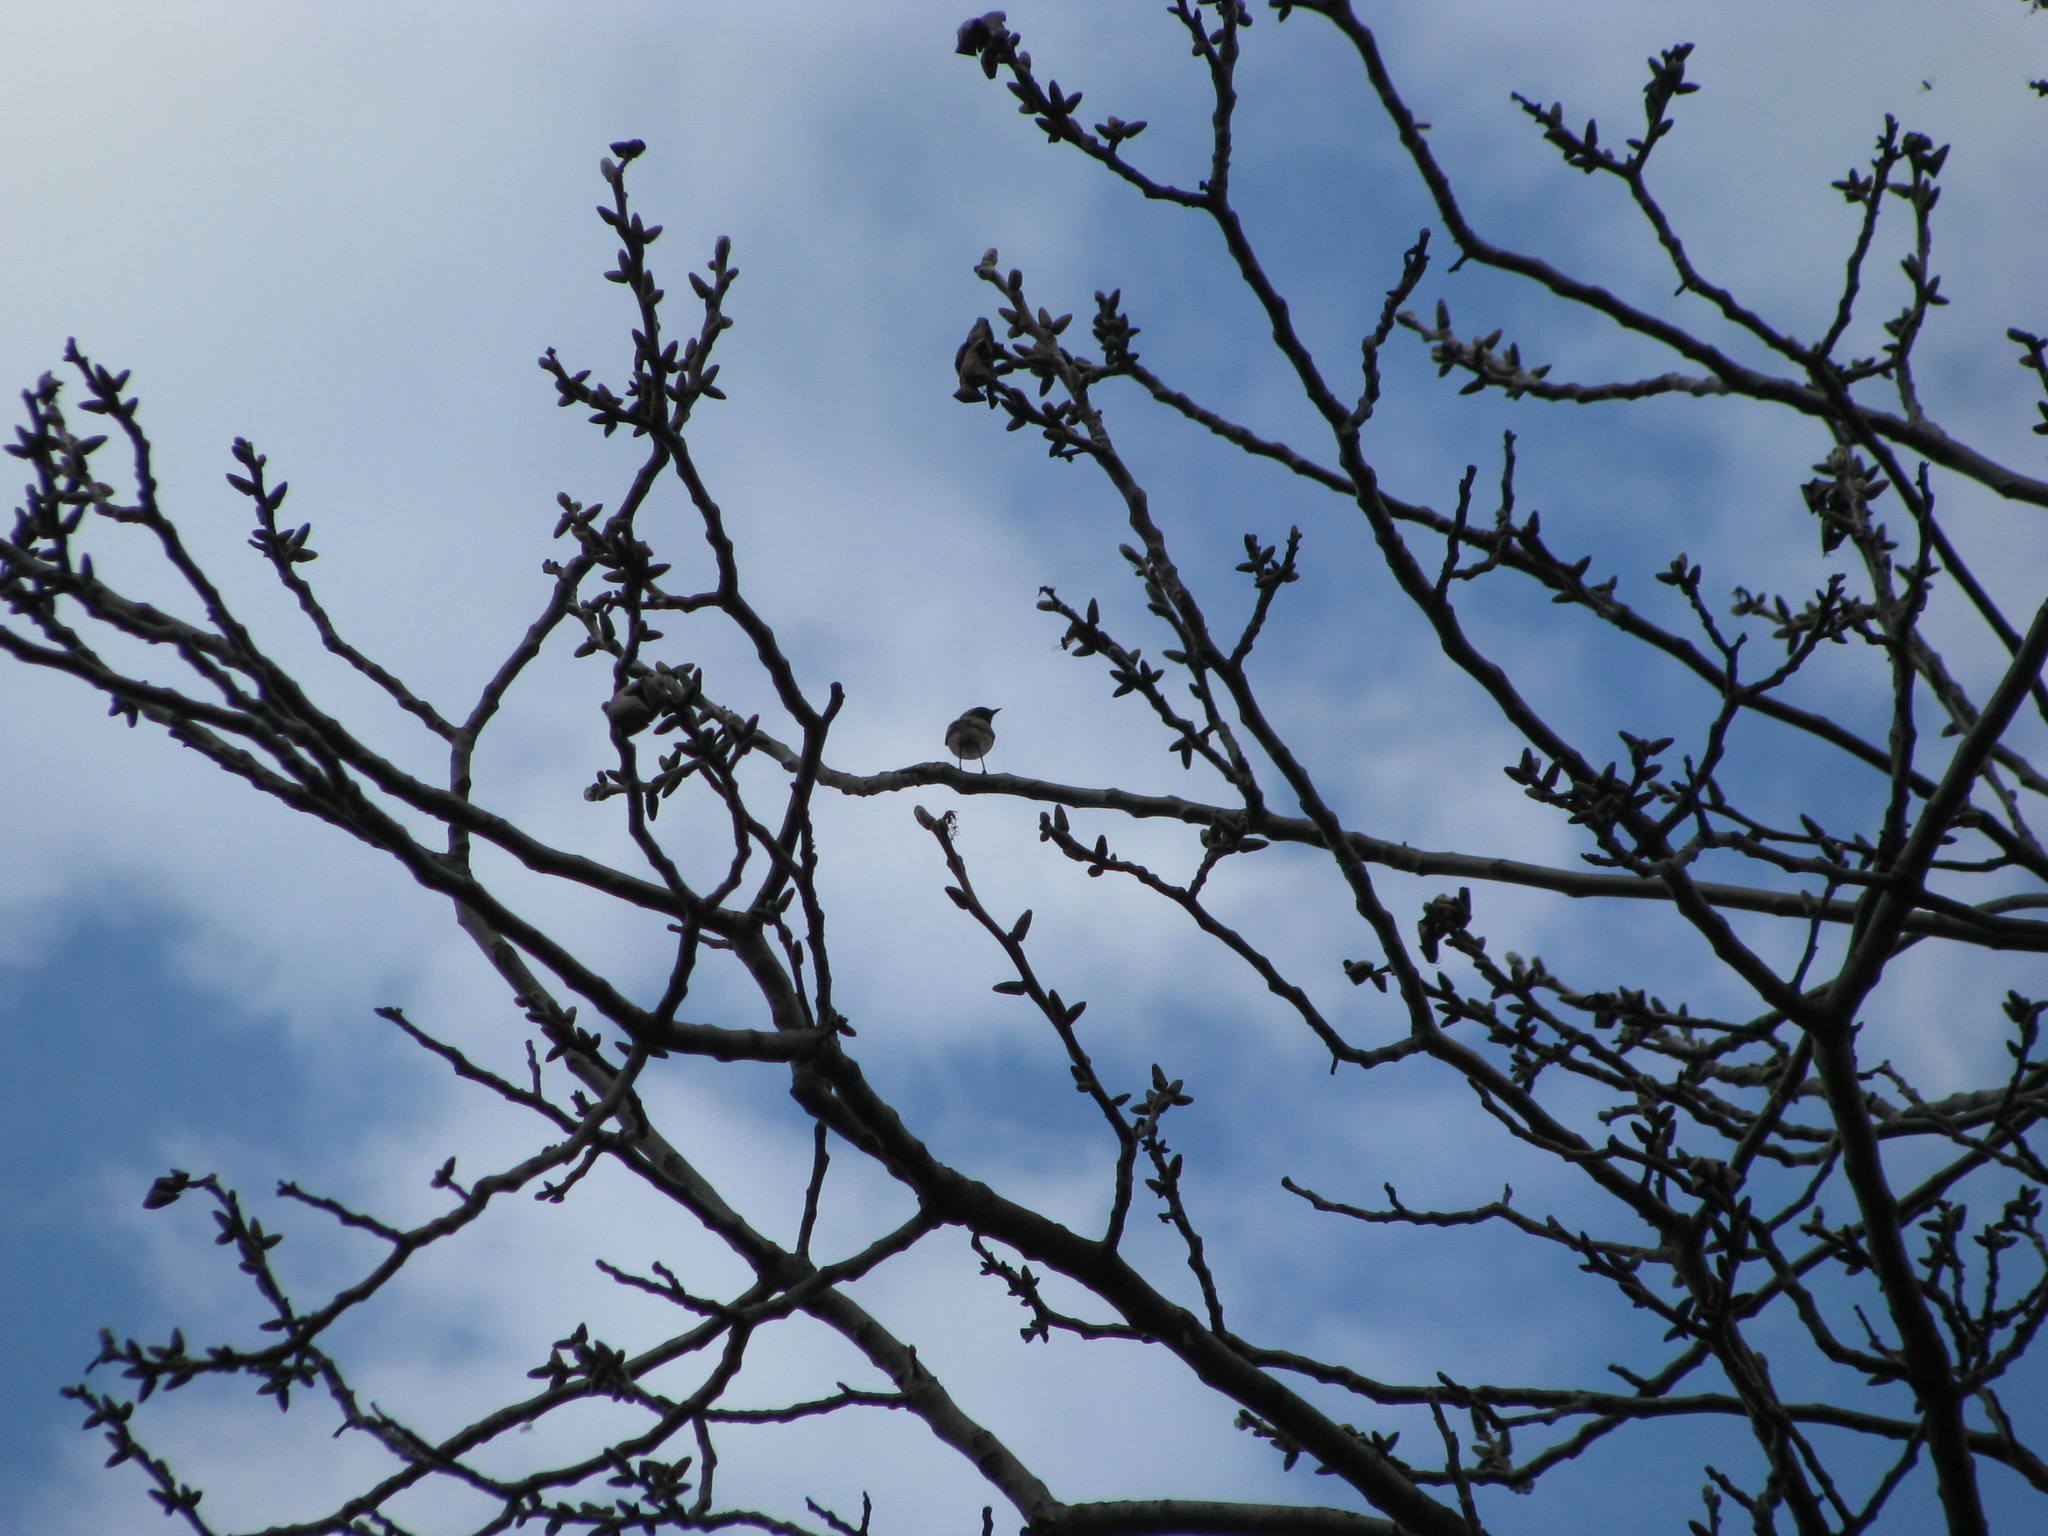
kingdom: Animalia
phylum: Chordata
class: Aves
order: Passeriformes
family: Muscicapidae
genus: Phoenicurus
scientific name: Phoenicurus phoenicurus
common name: Common redstart
